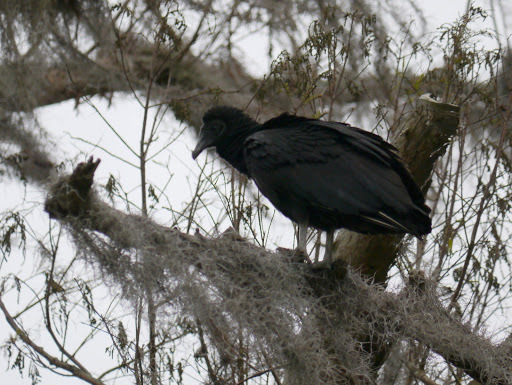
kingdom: Animalia
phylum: Chordata
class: Aves
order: Accipitriformes
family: Cathartidae
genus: Coragyps
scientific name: Coragyps atratus
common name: Black vulture
